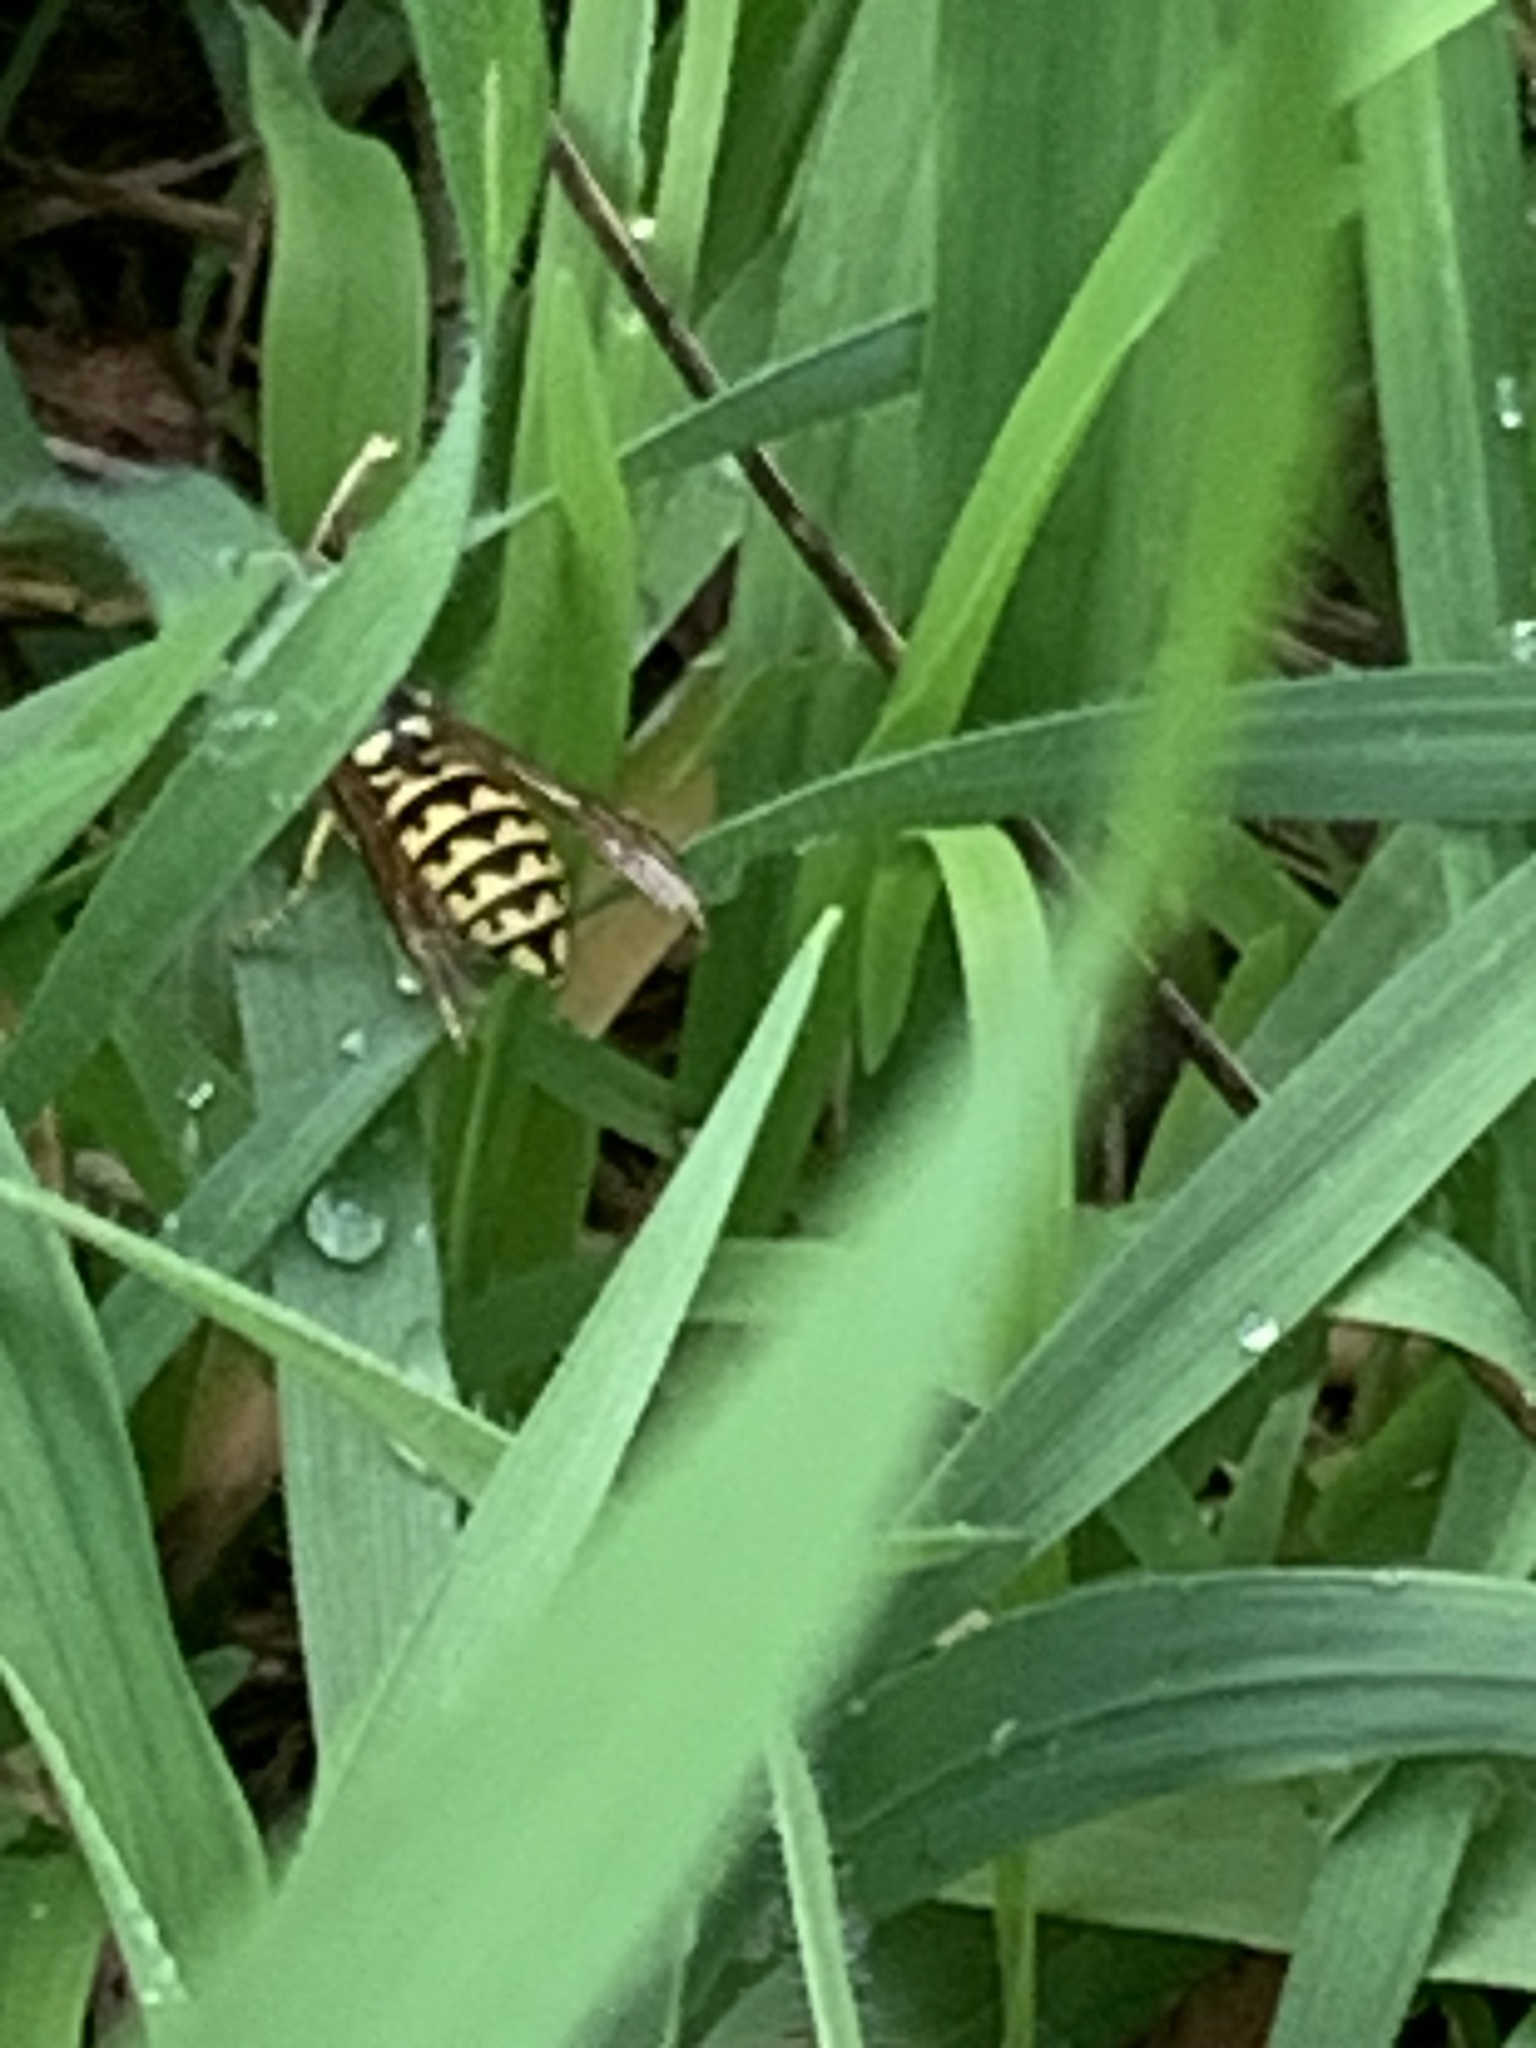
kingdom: Animalia
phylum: Arthropoda
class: Insecta
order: Hymenoptera
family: Vespidae
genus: Vespula
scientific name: Vespula pensylvanica
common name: Western yellowjacket
